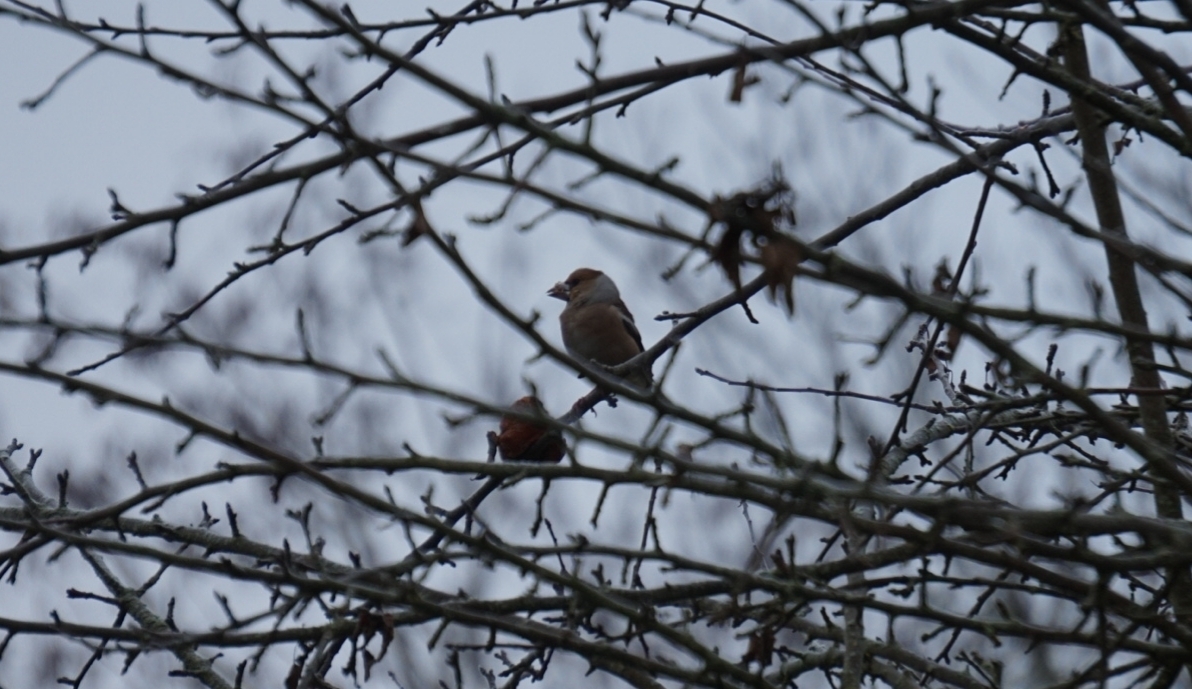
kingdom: Animalia
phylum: Chordata
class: Aves
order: Passeriformes
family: Fringillidae
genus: Coccothraustes
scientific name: Coccothraustes coccothraustes
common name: Hawfinch
